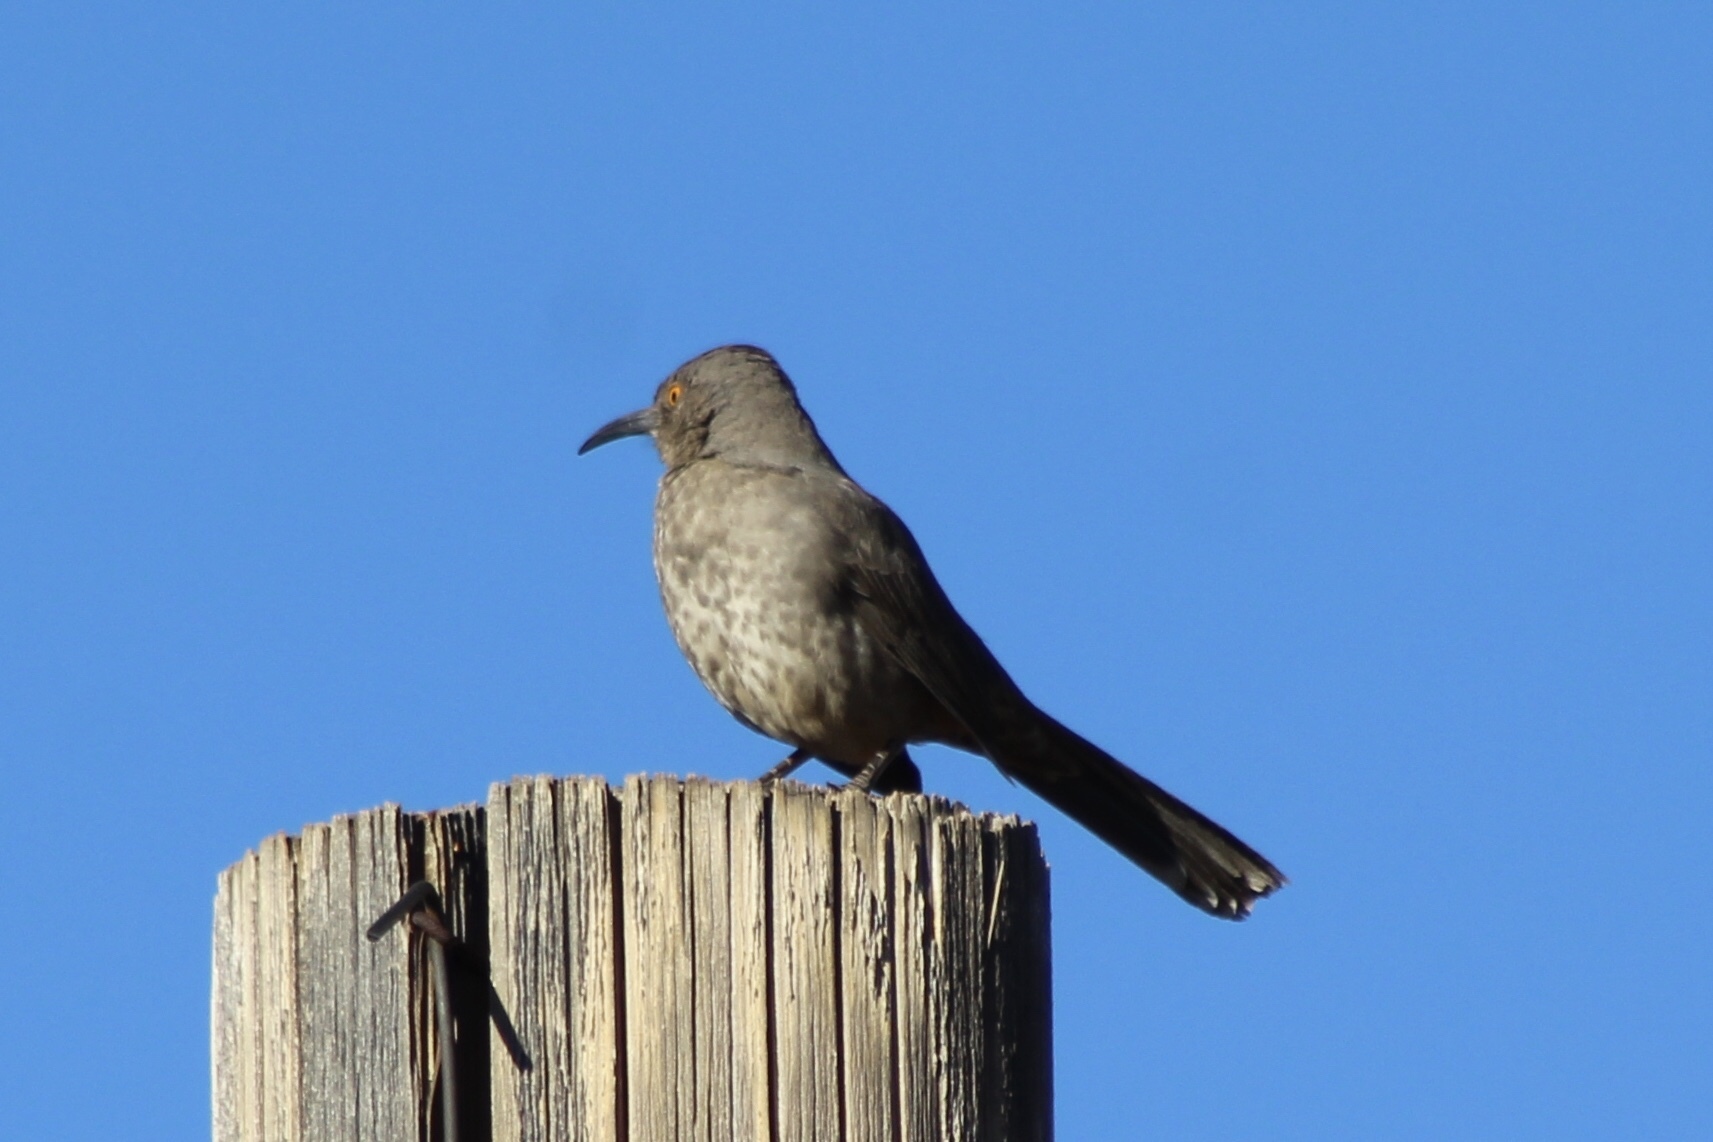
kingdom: Animalia
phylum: Chordata
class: Aves
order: Passeriformes
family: Mimidae
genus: Toxostoma
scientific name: Toxostoma curvirostre
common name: Curve-billed thrasher
